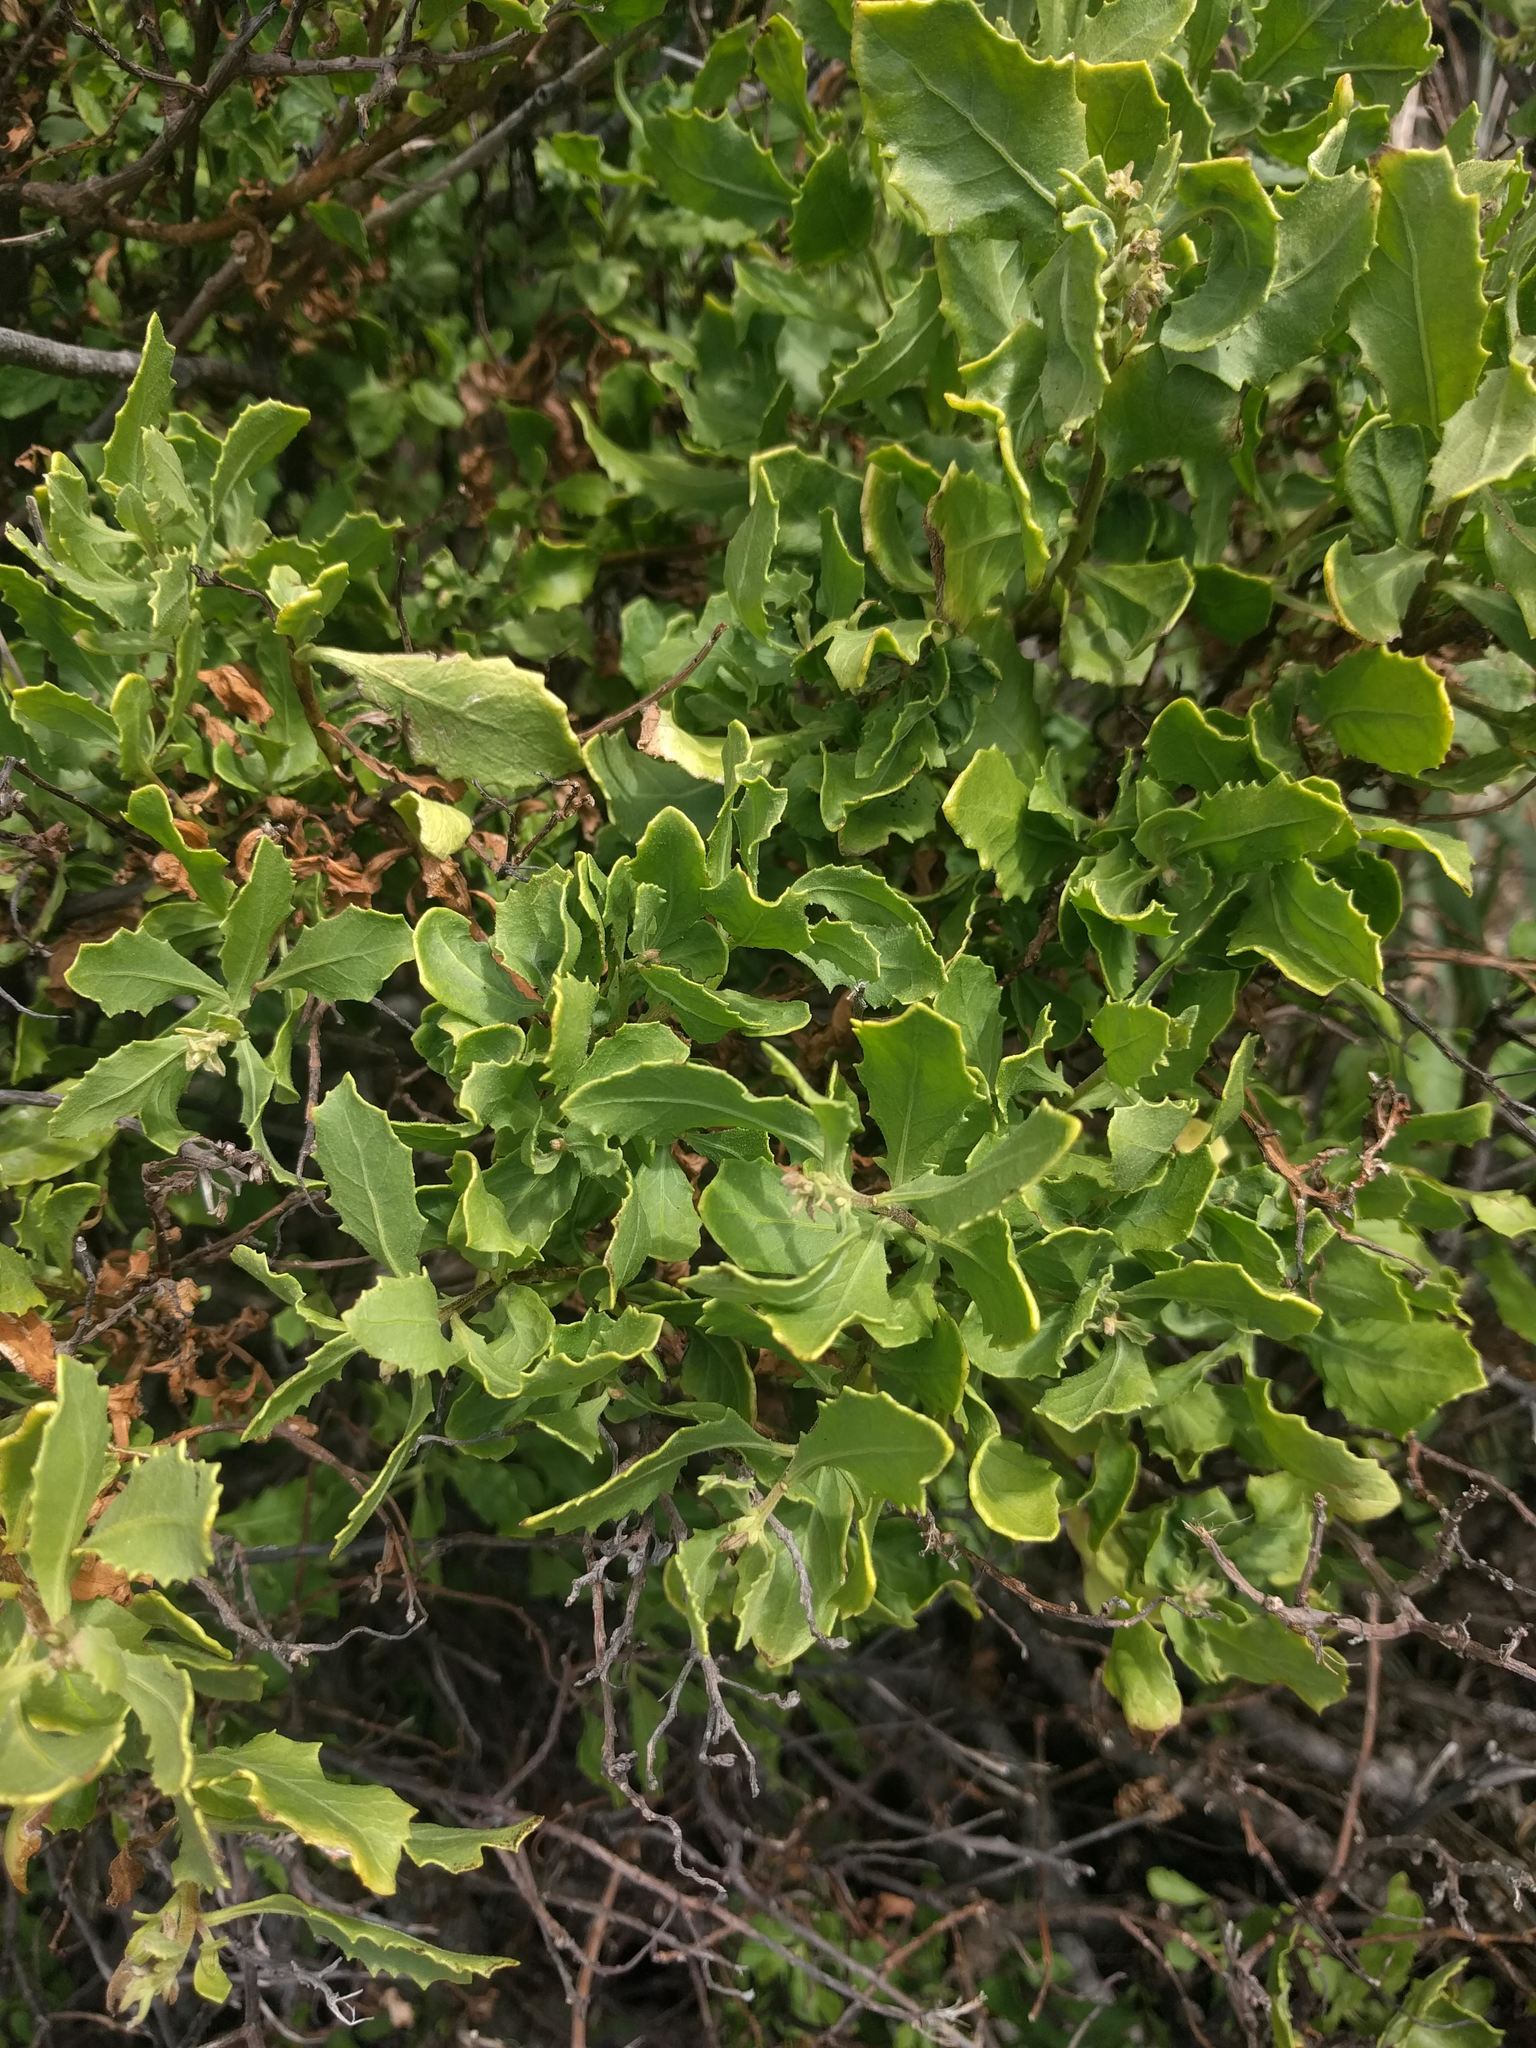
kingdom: Plantae
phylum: Tracheophyta
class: Magnoliopsida
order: Asterales
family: Asteraceae
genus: Pluchea
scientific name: Pluchea indica
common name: Indian fleabane
